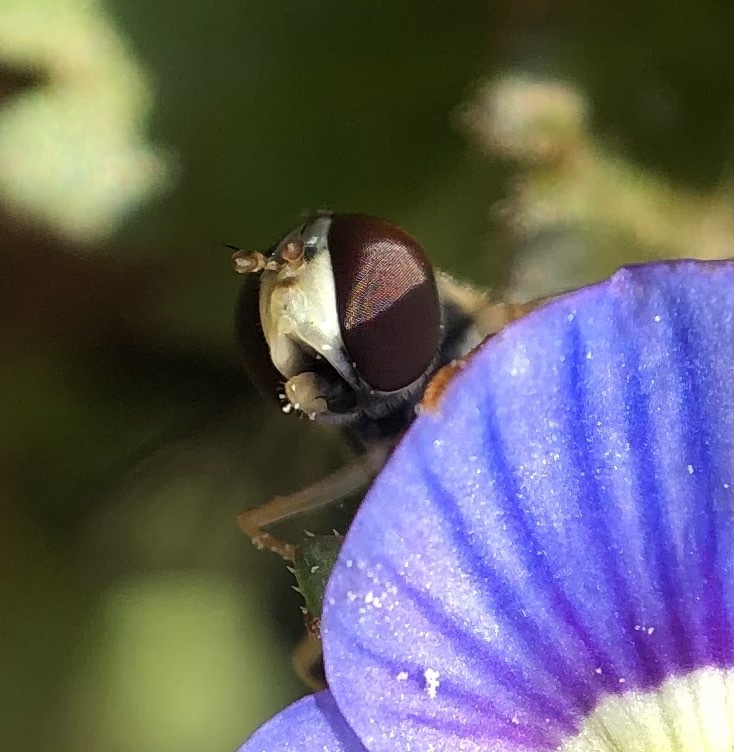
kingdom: Animalia
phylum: Arthropoda
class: Insecta
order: Diptera
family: Syrphidae
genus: Toxomerus
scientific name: Toxomerus geminatus
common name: Eastern calligrapher
